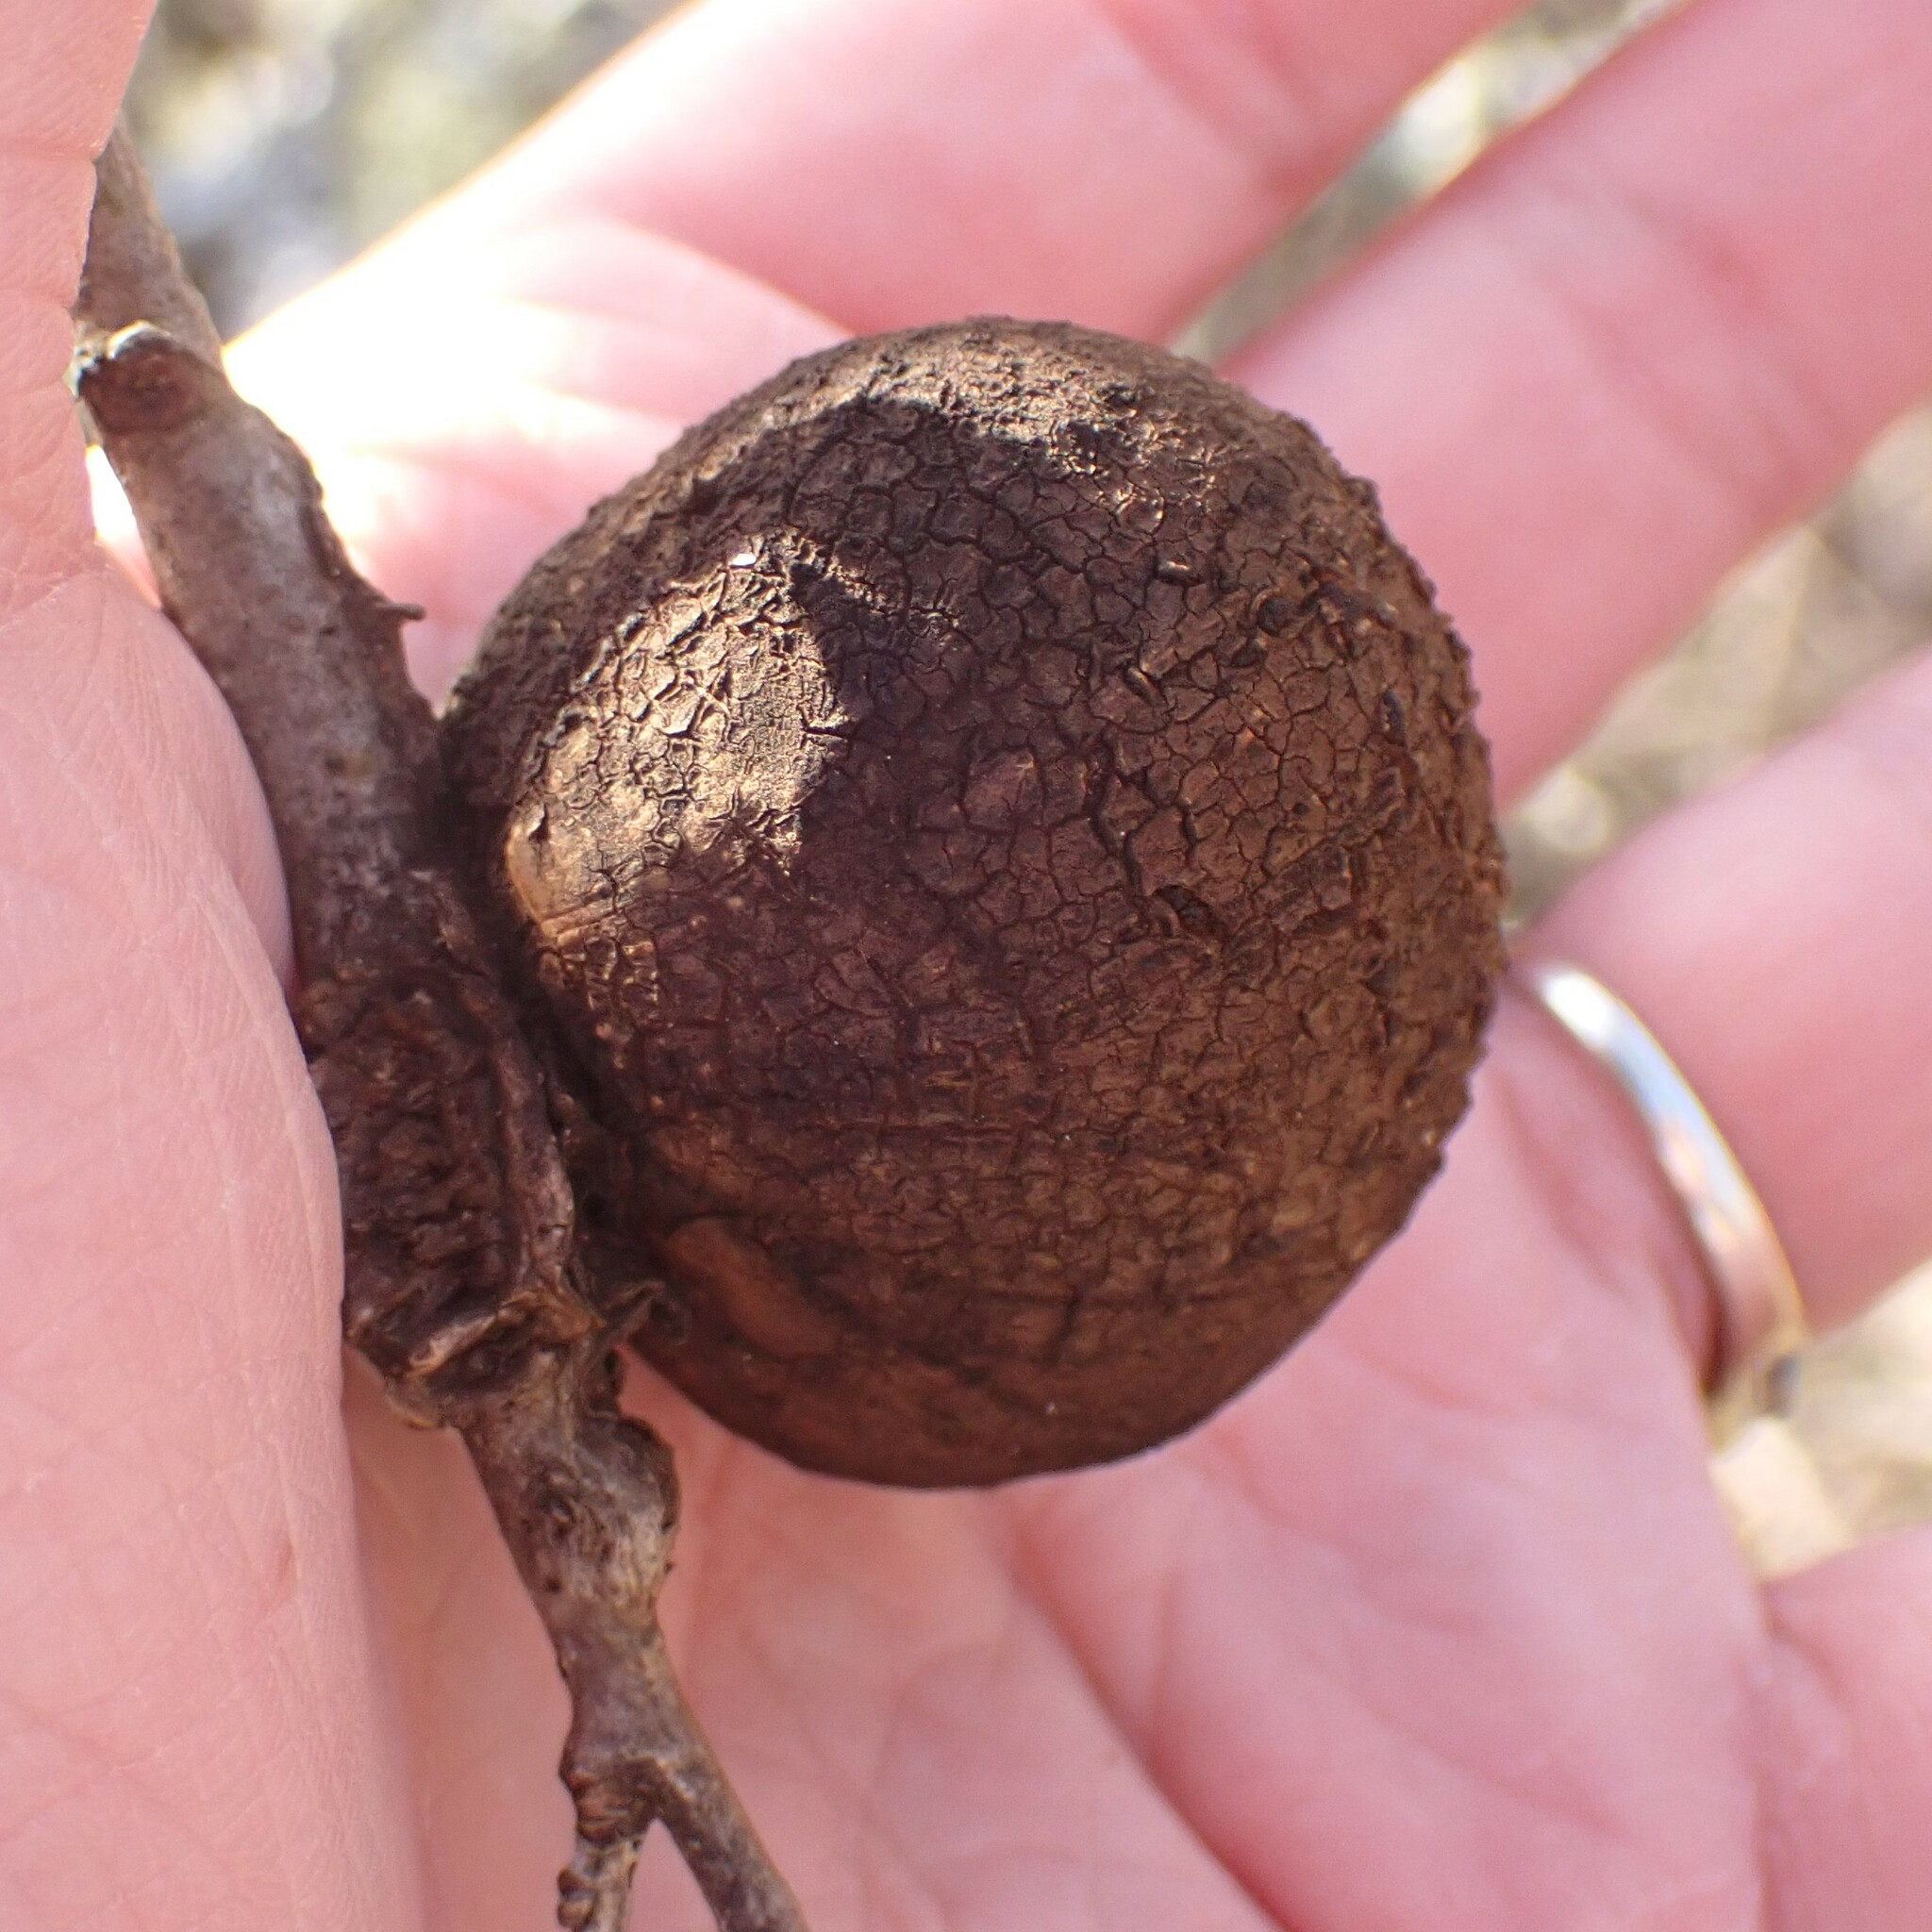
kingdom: Animalia
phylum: Arthropoda
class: Insecta
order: Hymenoptera
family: Cynipidae
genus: Andricus
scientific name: Andricus quercuscalifornicus
